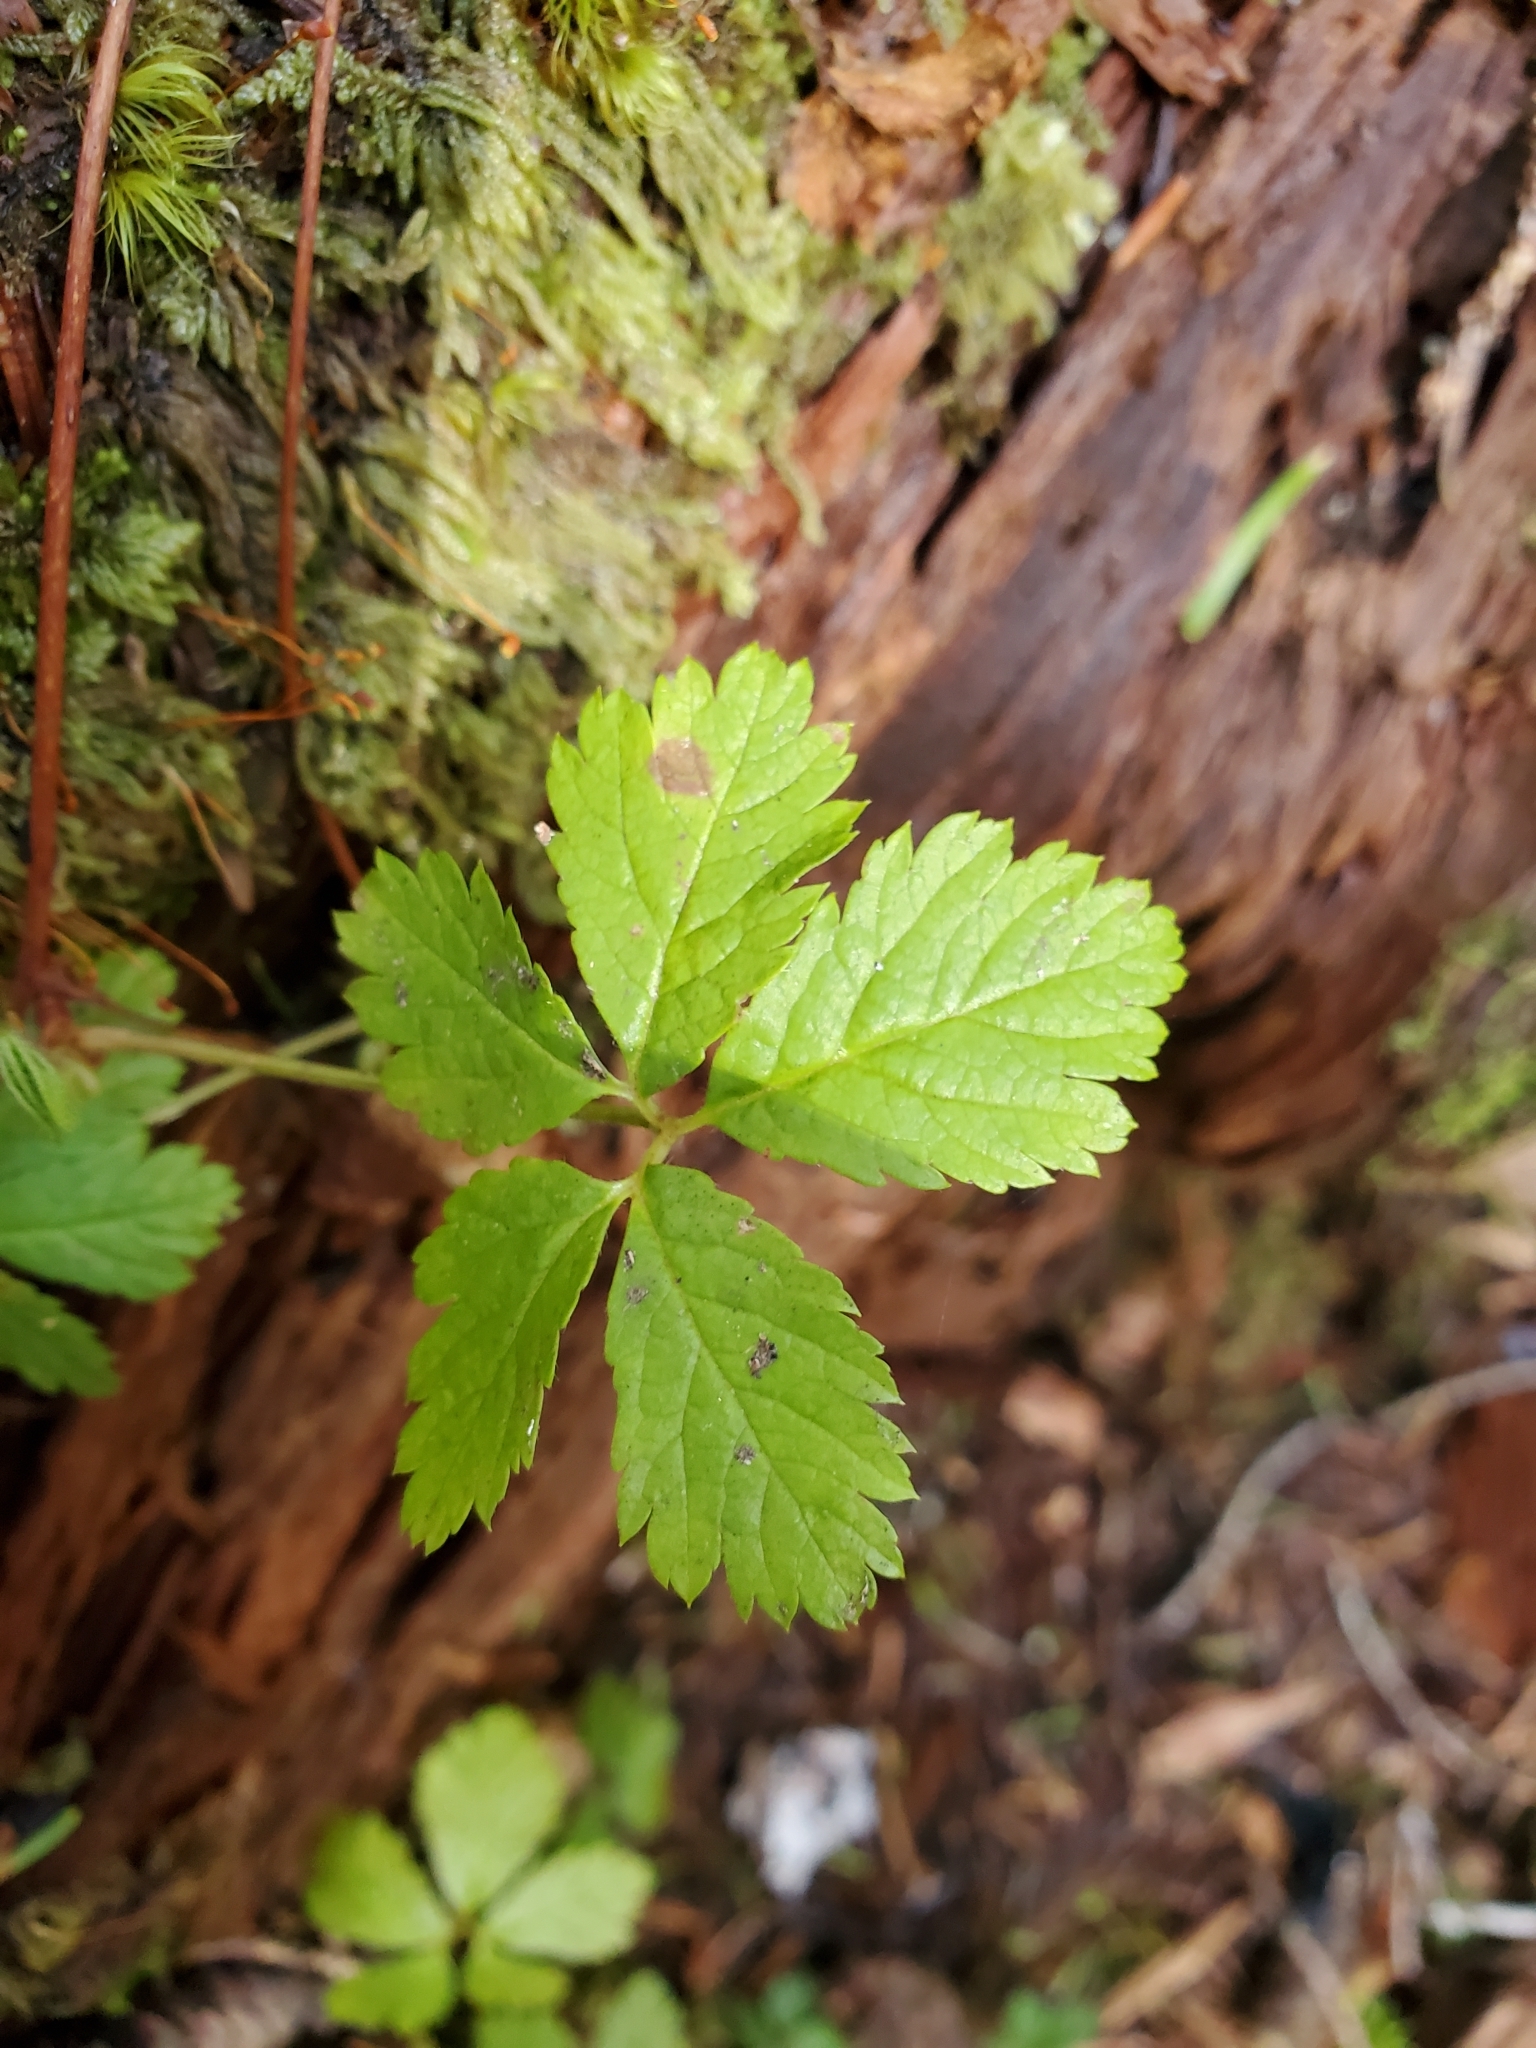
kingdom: Plantae
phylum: Tracheophyta
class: Magnoliopsida
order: Rosales
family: Rosaceae
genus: Rubus
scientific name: Rubus pedatus
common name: Creeping raspberry
